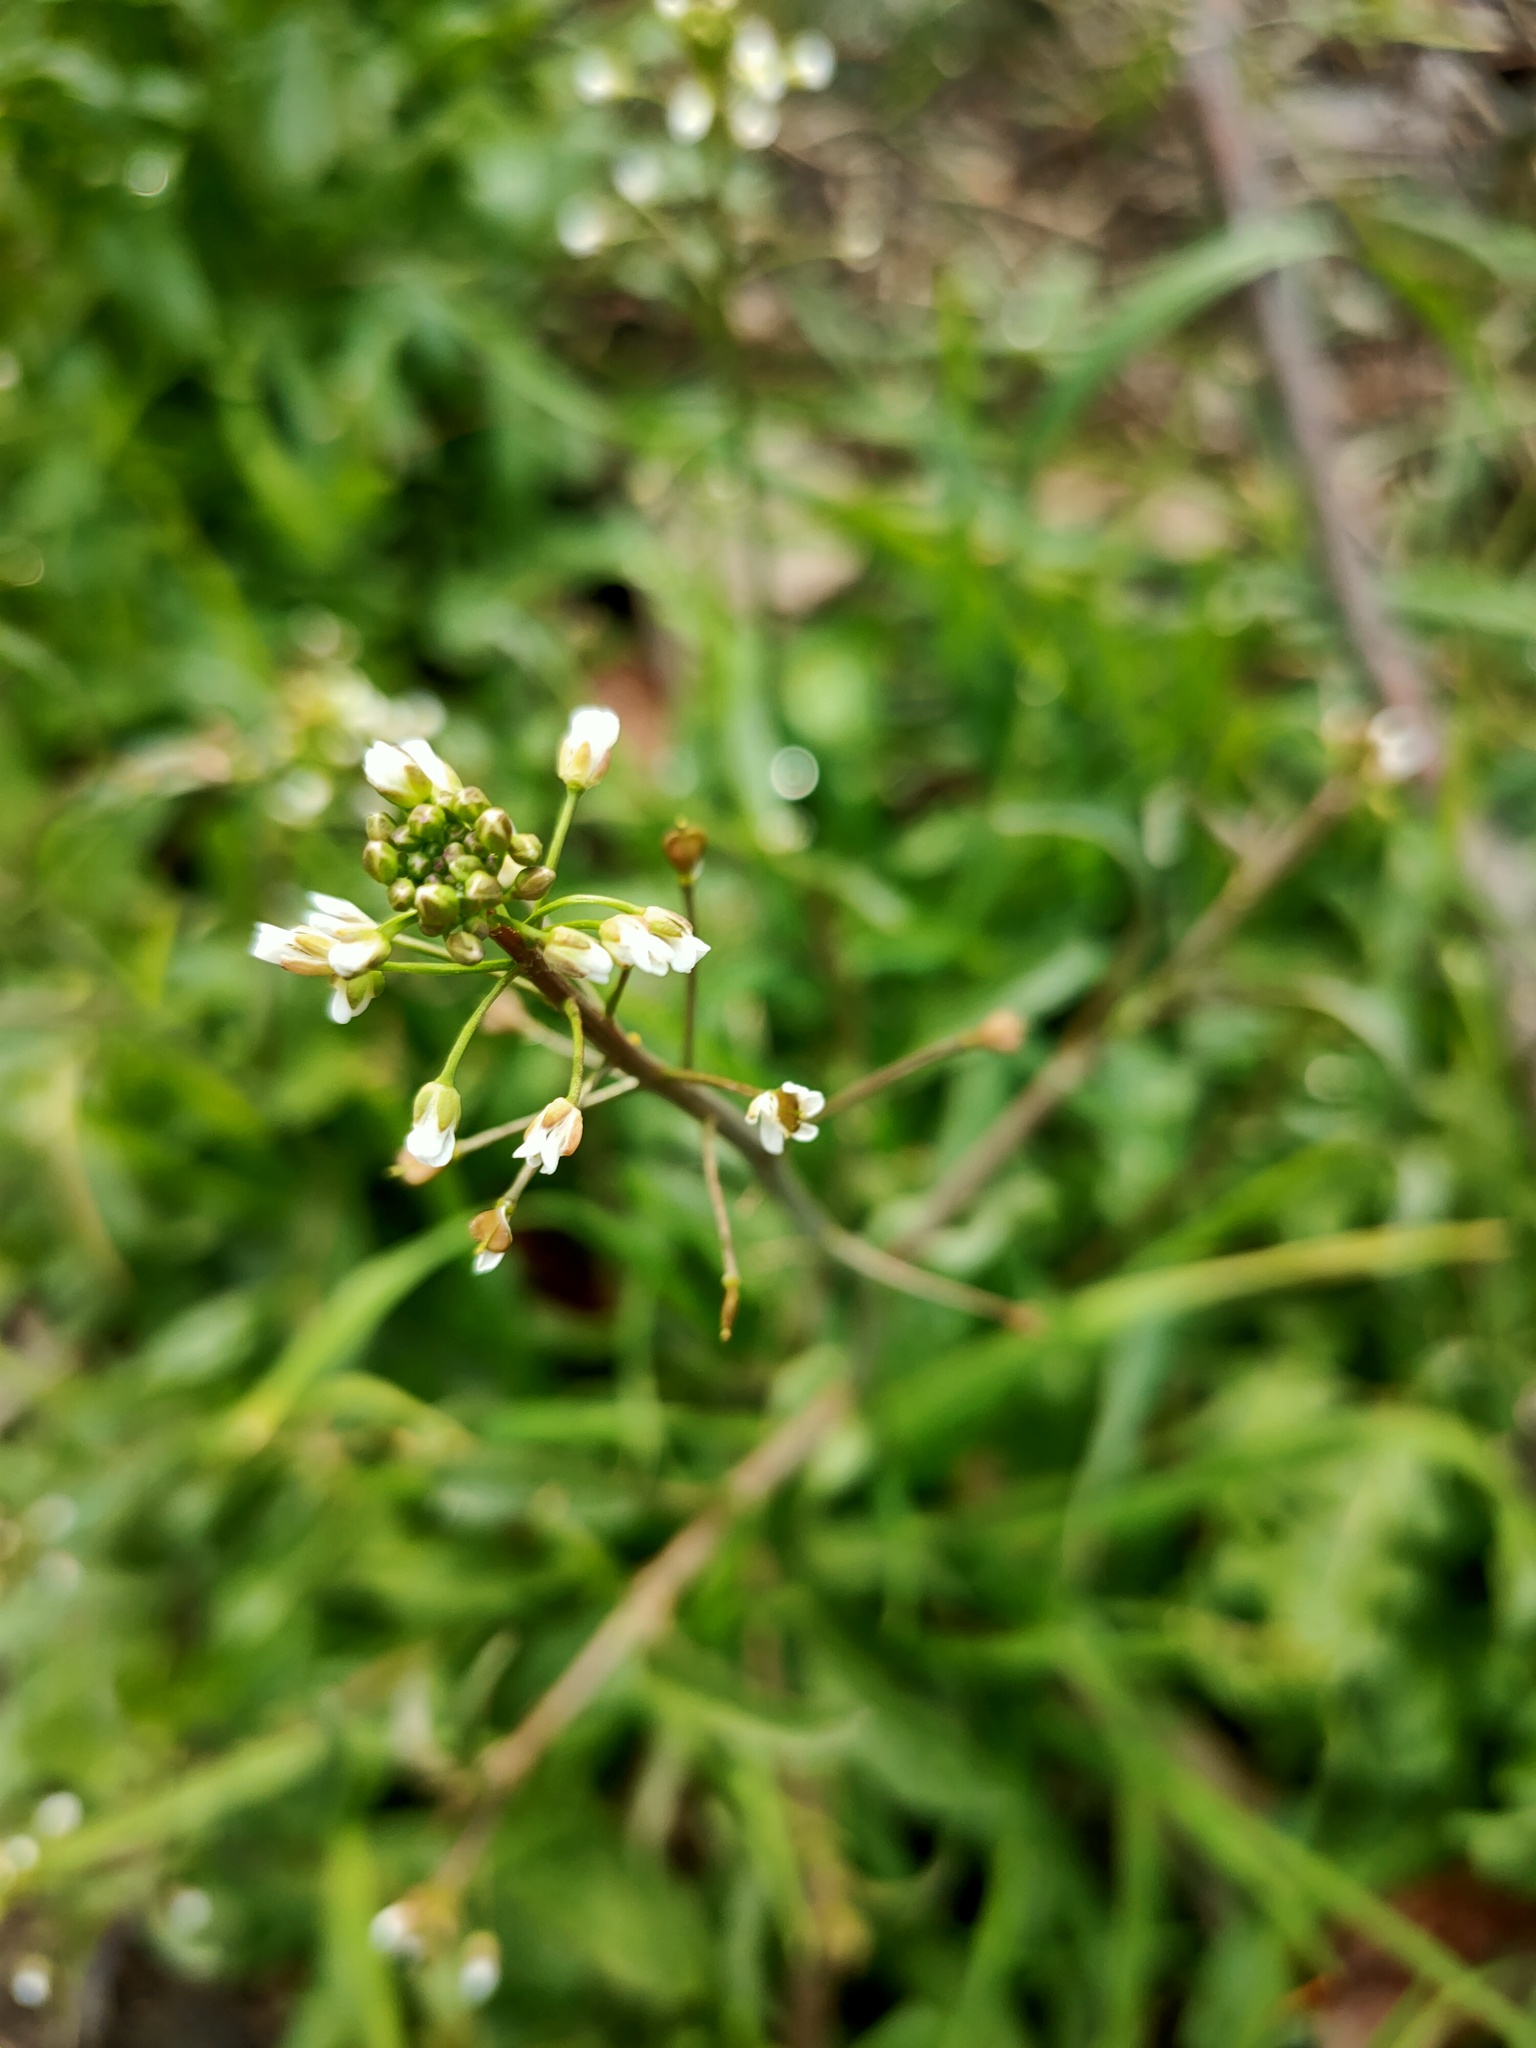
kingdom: Plantae
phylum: Tracheophyta
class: Magnoliopsida
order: Brassicales
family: Brassicaceae
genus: Capsella
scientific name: Capsella bursa-pastoris
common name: Shepherd's purse
